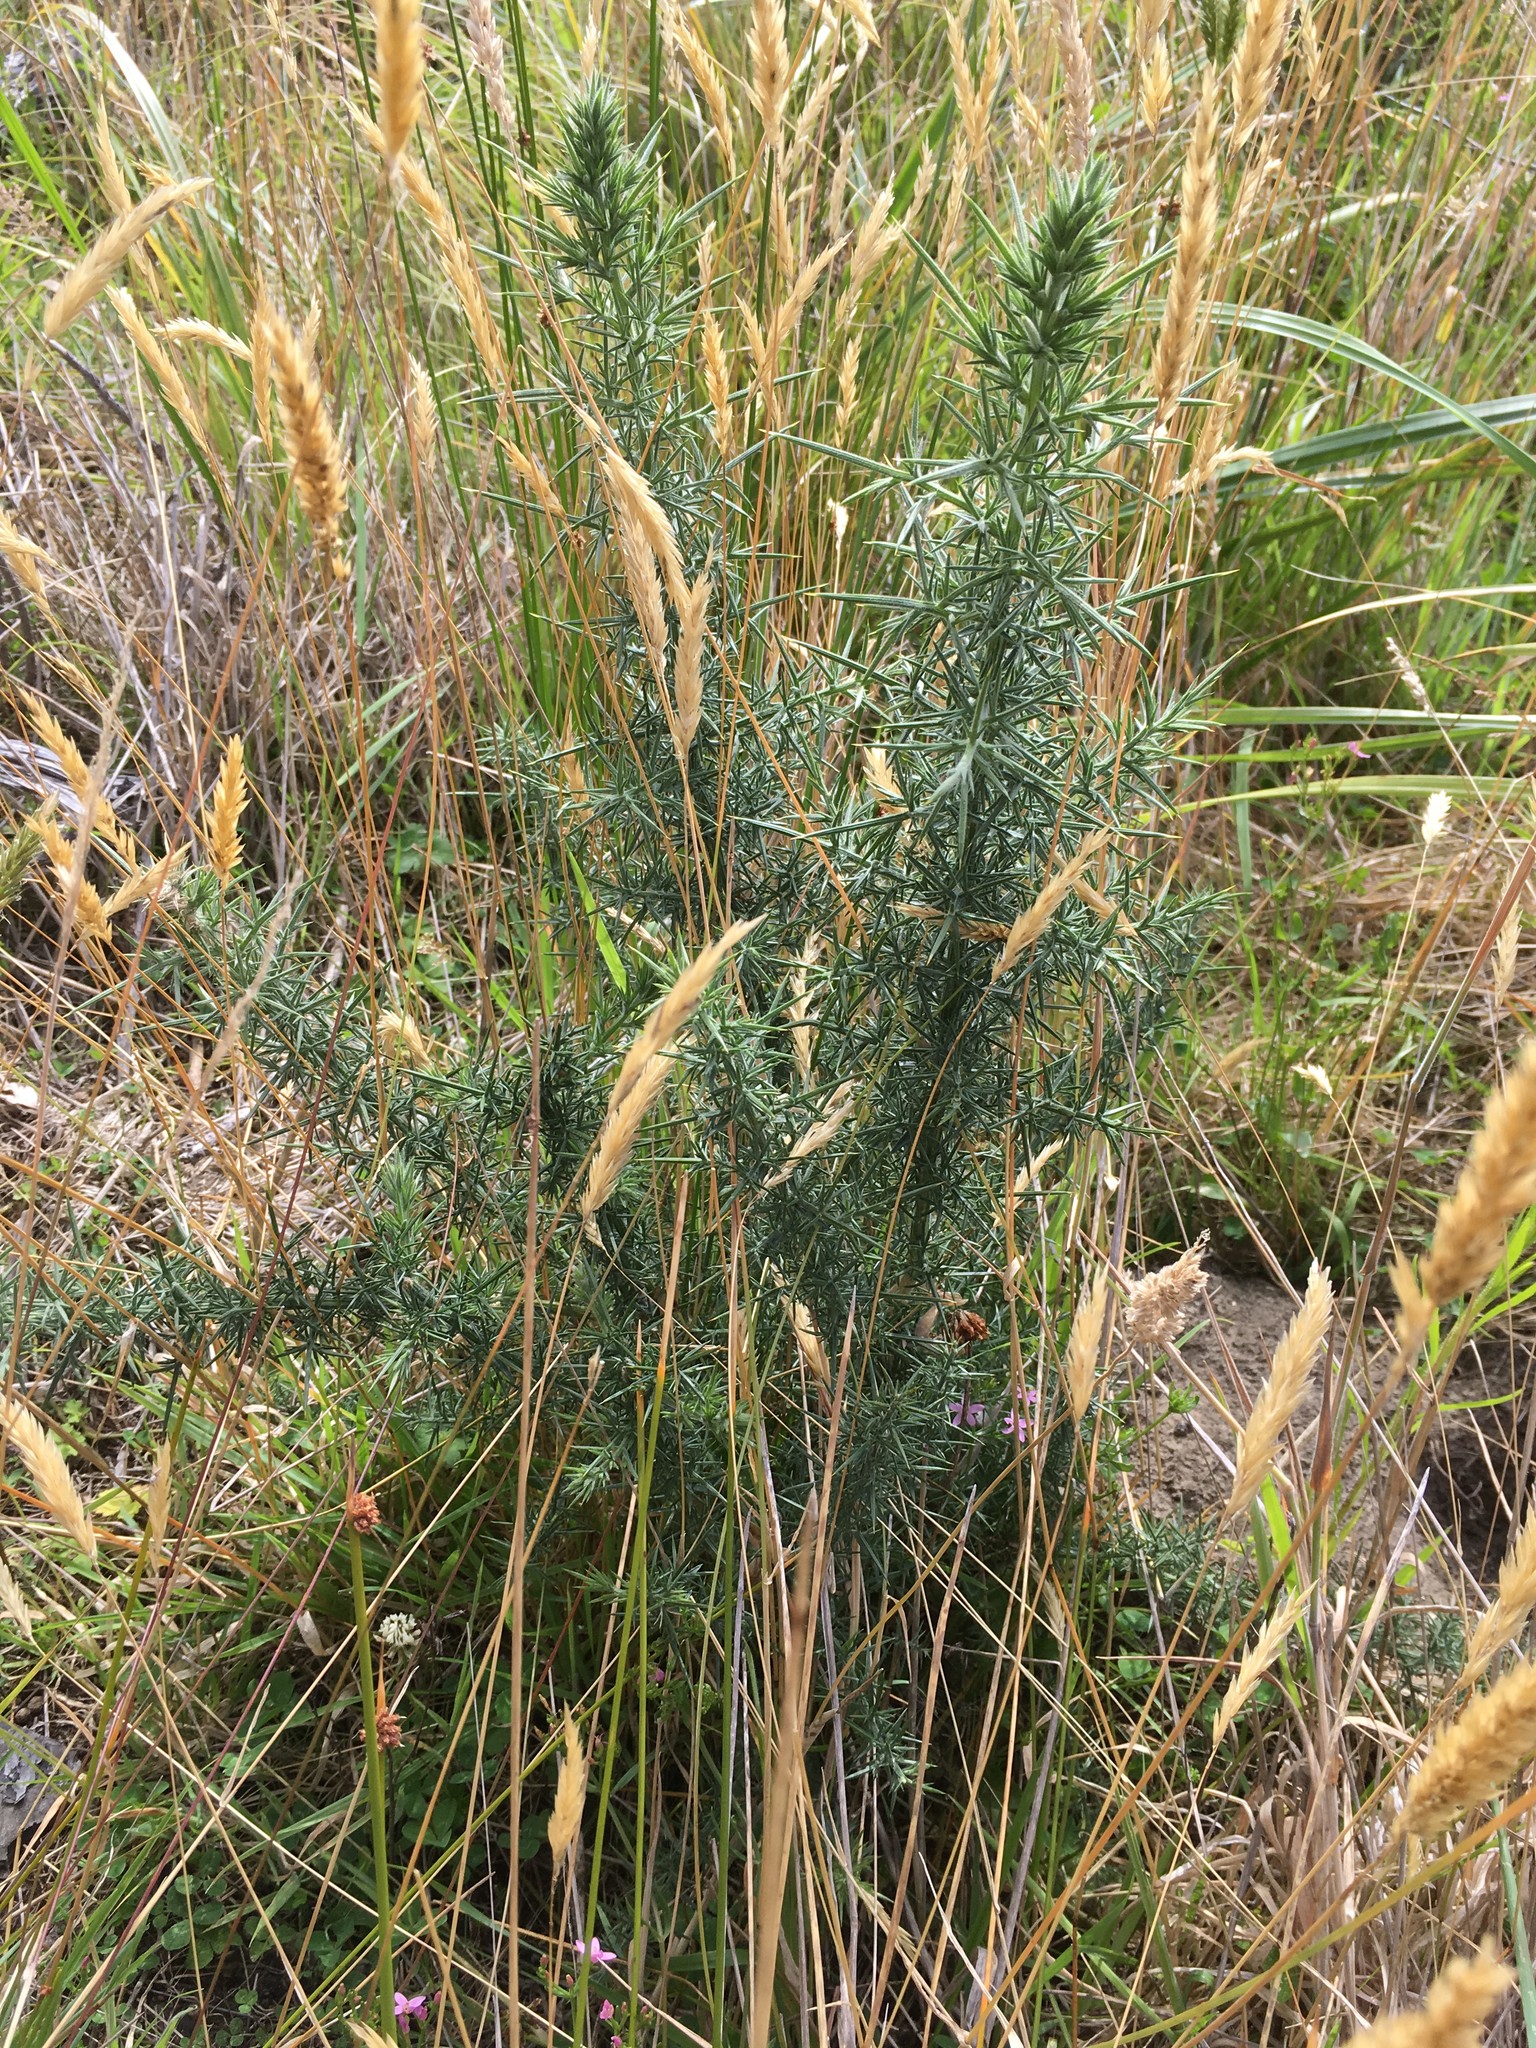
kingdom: Plantae
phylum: Tracheophyta
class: Magnoliopsida
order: Fabales
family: Fabaceae
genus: Ulex
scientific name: Ulex europaeus
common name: Common gorse
